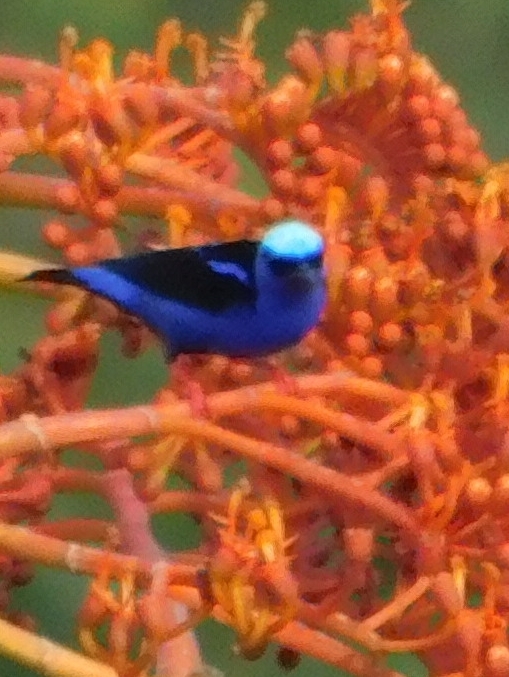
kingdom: Animalia
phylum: Chordata
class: Aves
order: Passeriformes
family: Thraupidae
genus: Cyanerpes
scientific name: Cyanerpes cyaneus
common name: Red-legged honeycreeper
